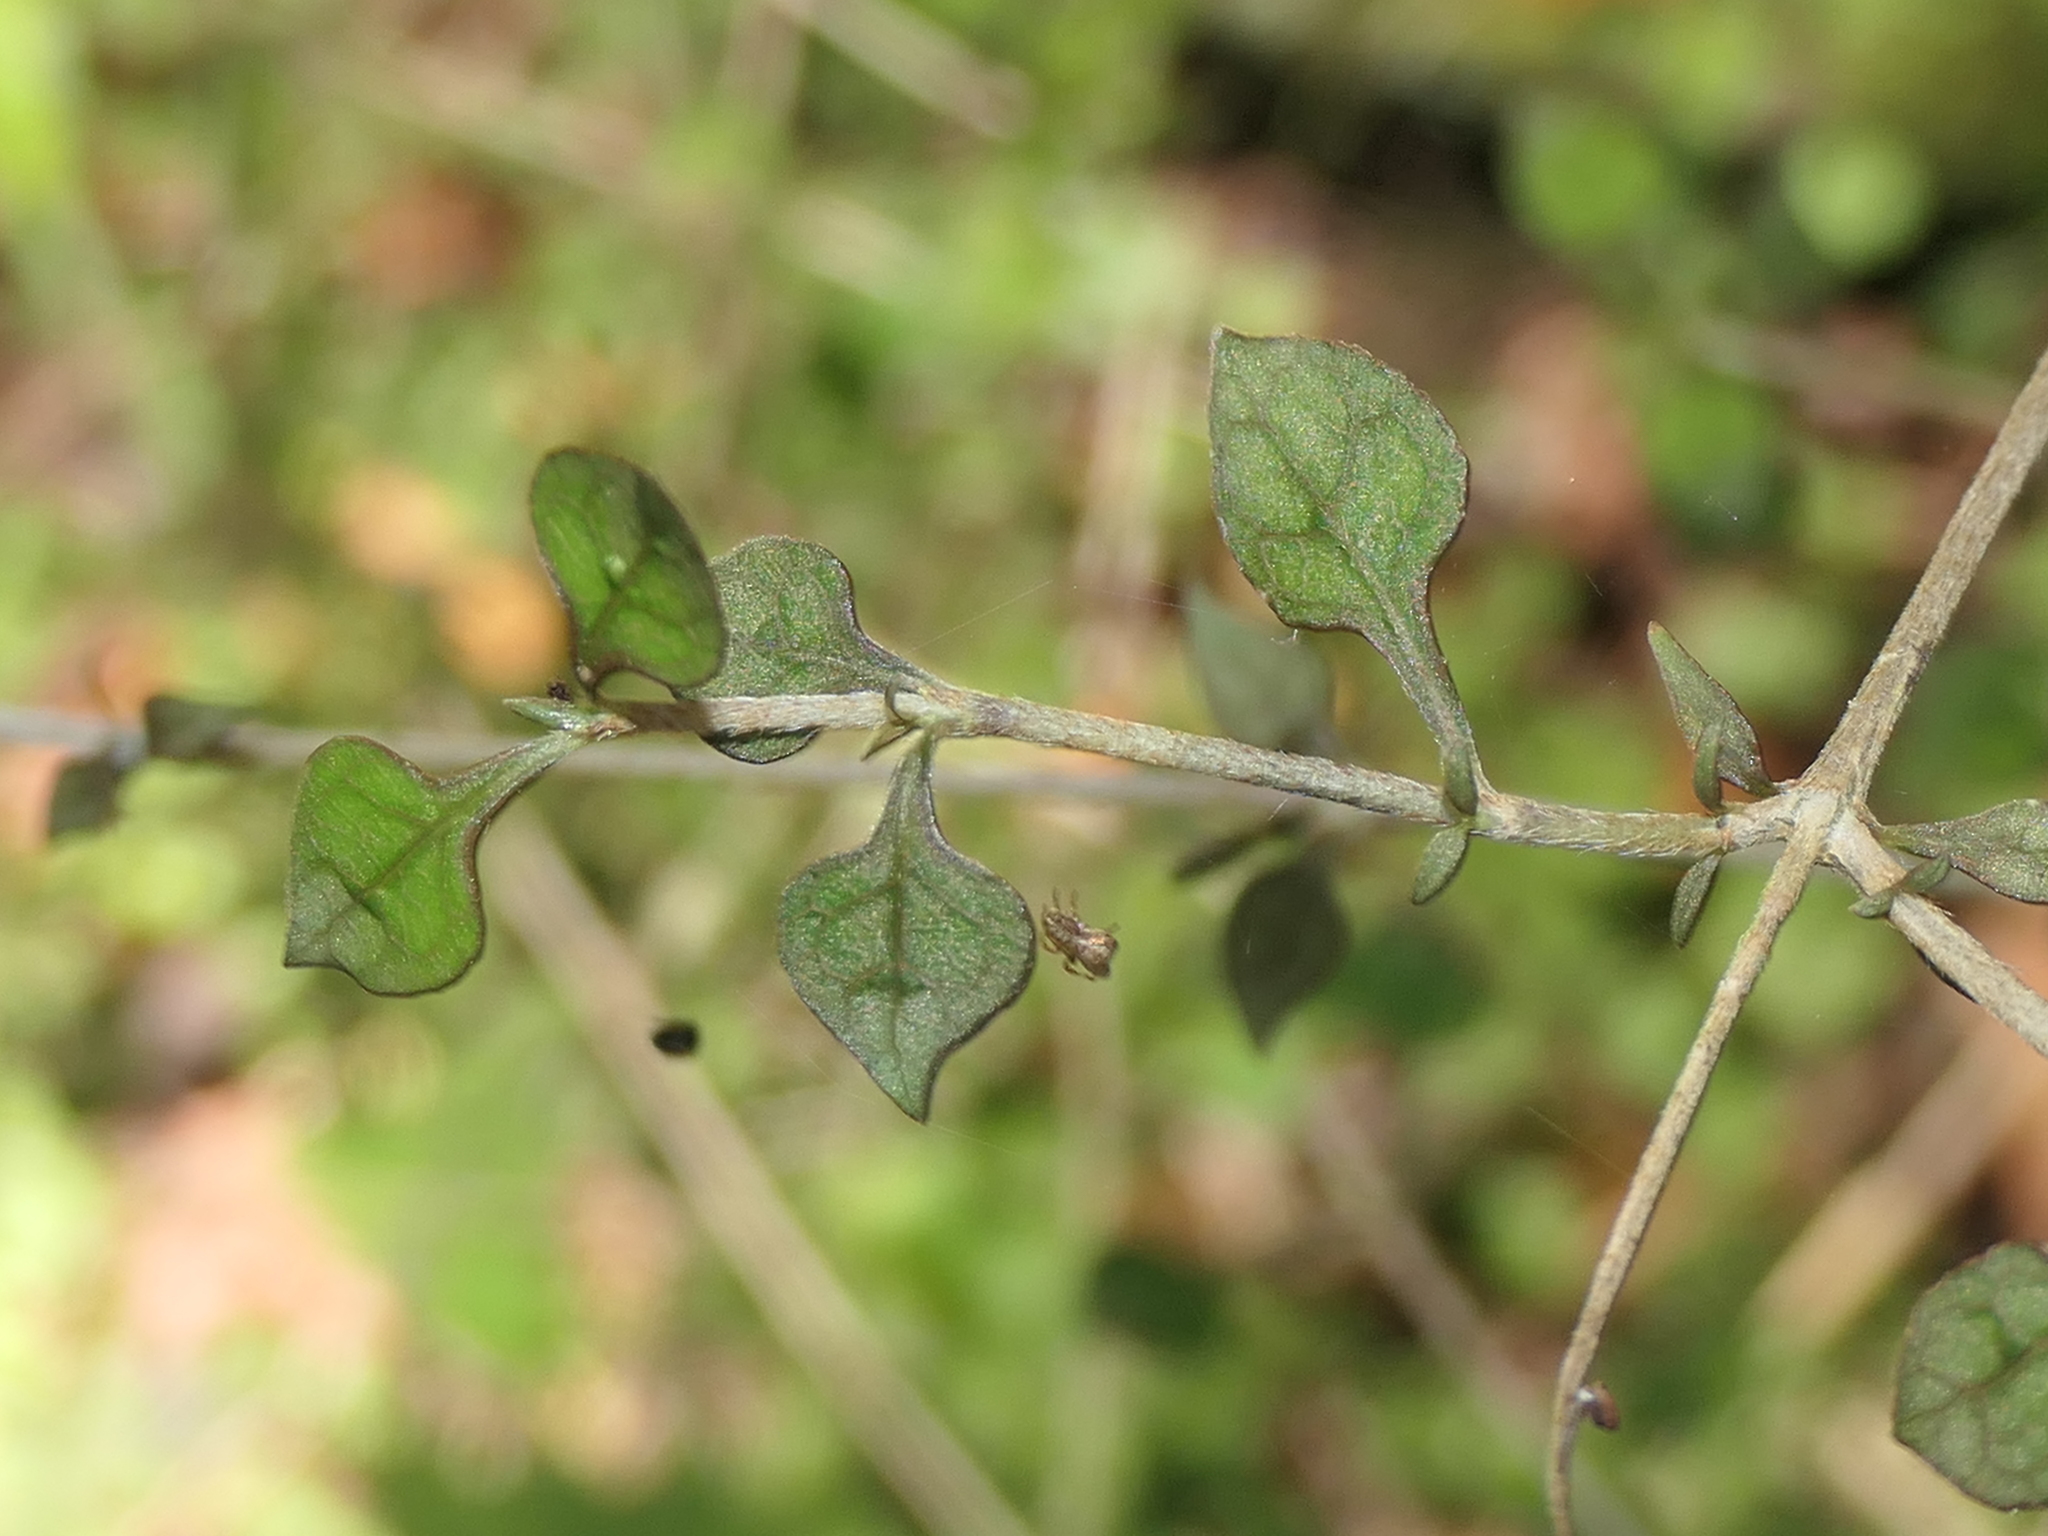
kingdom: Plantae
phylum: Tracheophyta
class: Magnoliopsida
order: Gentianales
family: Rubiaceae
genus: Coprosma
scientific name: Coprosma areolata
